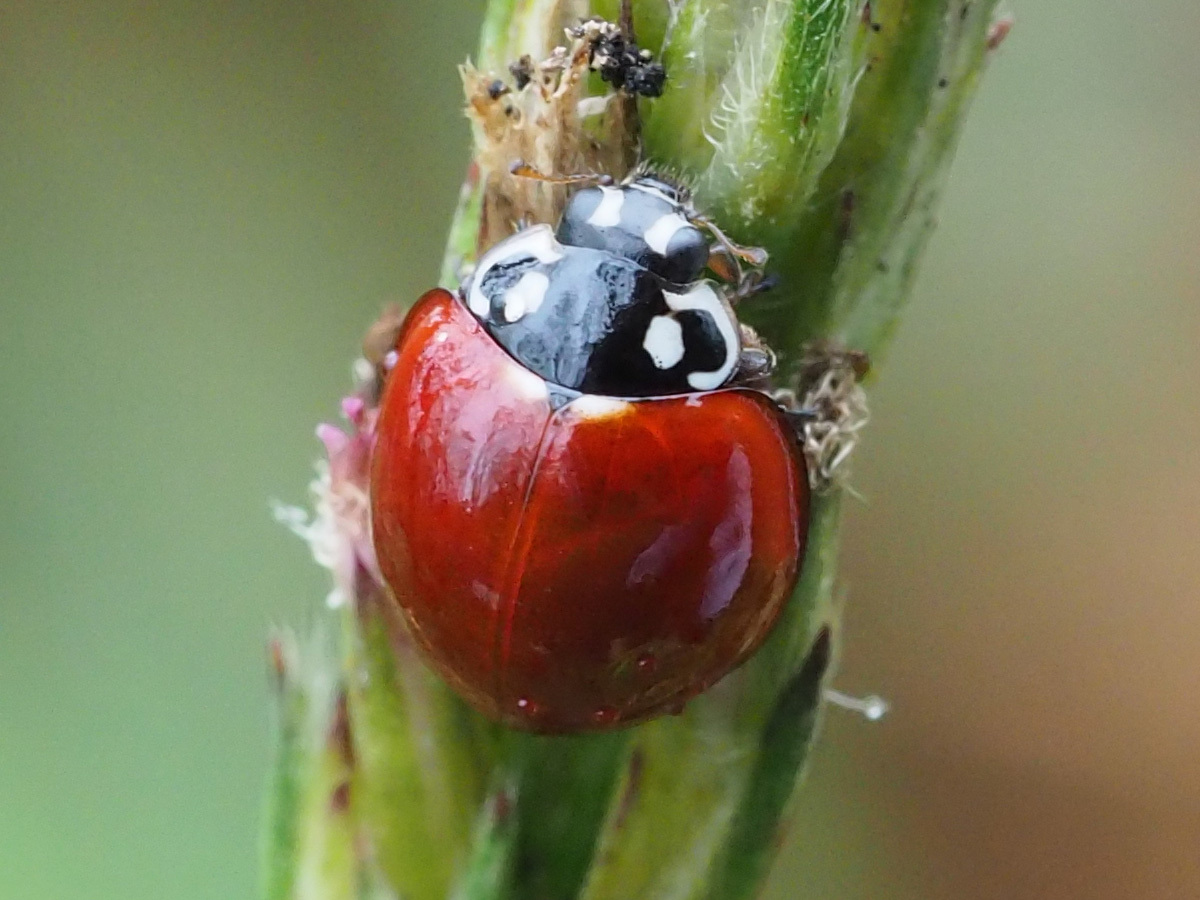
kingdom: Animalia
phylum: Arthropoda
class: Insecta
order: Coleoptera
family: Coccinellidae
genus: Cycloneda
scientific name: Cycloneda sanguinea
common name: Ladybird beetle
